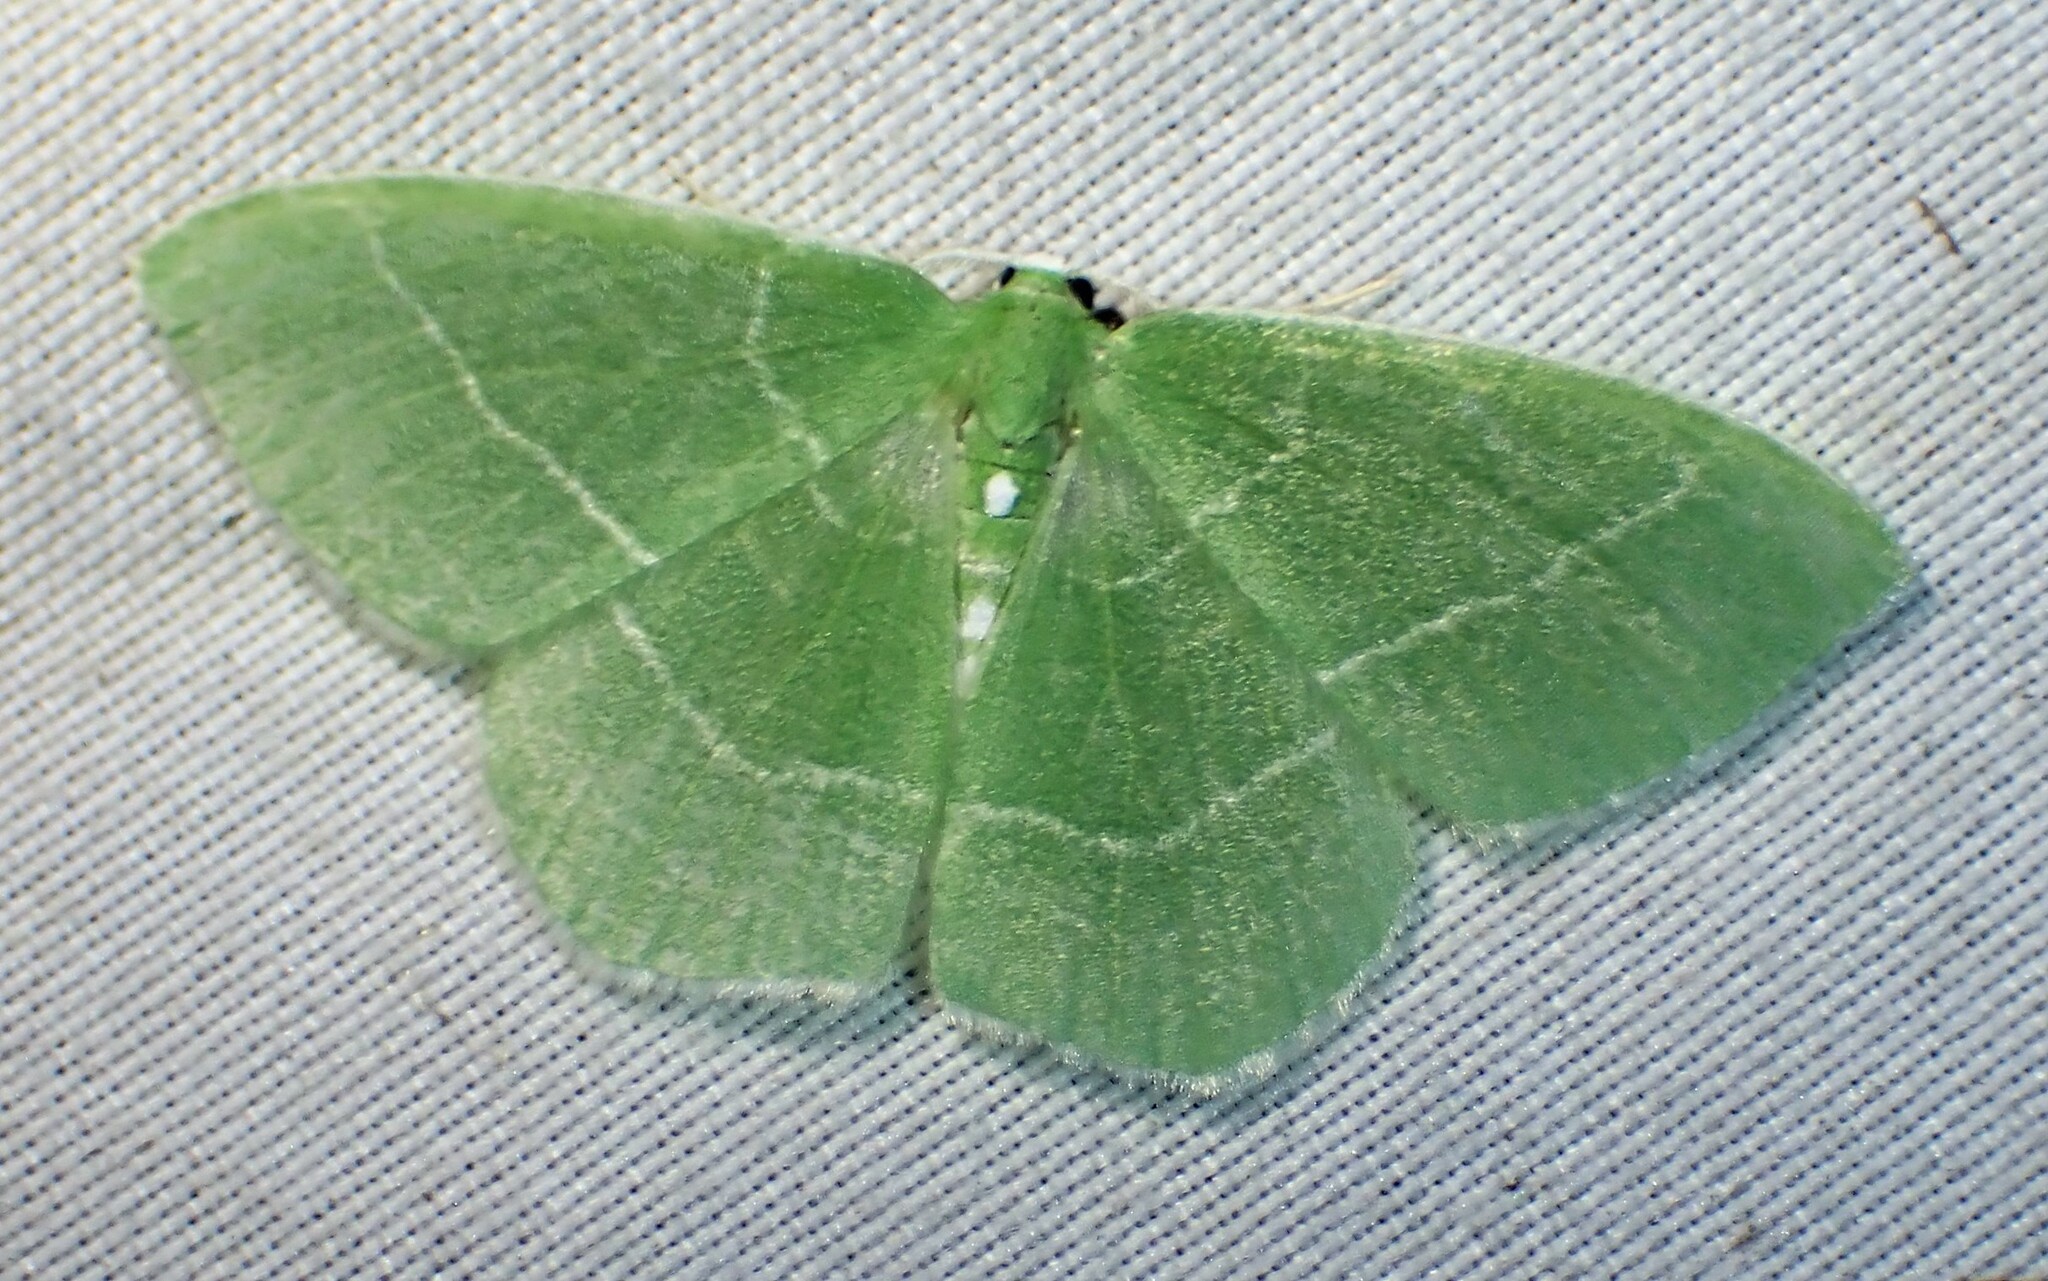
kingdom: Animalia
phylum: Arthropoda
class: Insecta
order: Lepidoptera
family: Geometridae
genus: Nemoria
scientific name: Nemoria mimosaria
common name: White-fringed emerald
